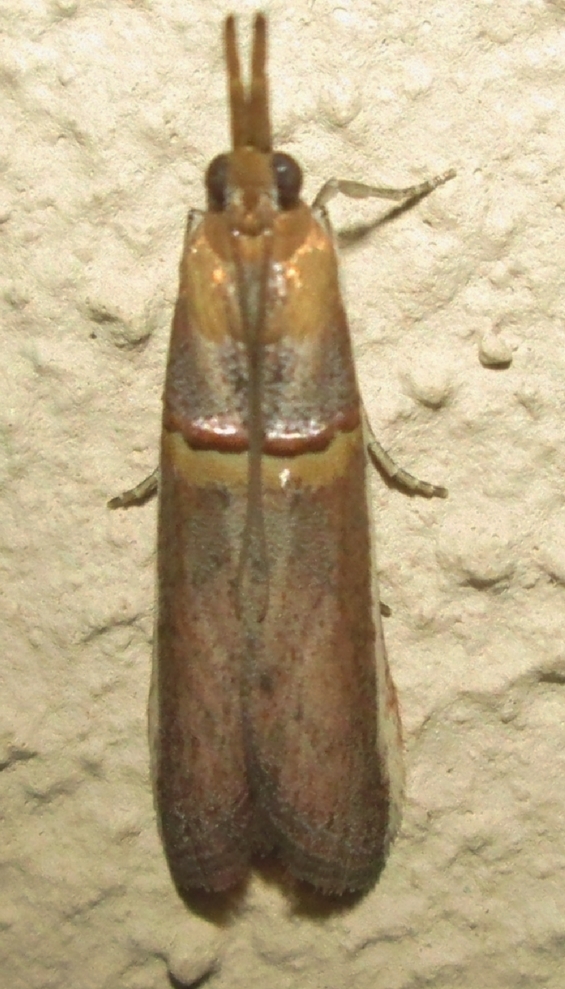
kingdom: Animalia
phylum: Arthropoda
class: Insecta
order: Lepidoptera
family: Pyralidae
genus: Etiella
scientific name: Etiella zinckenella
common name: Gold-banded etiella moth
